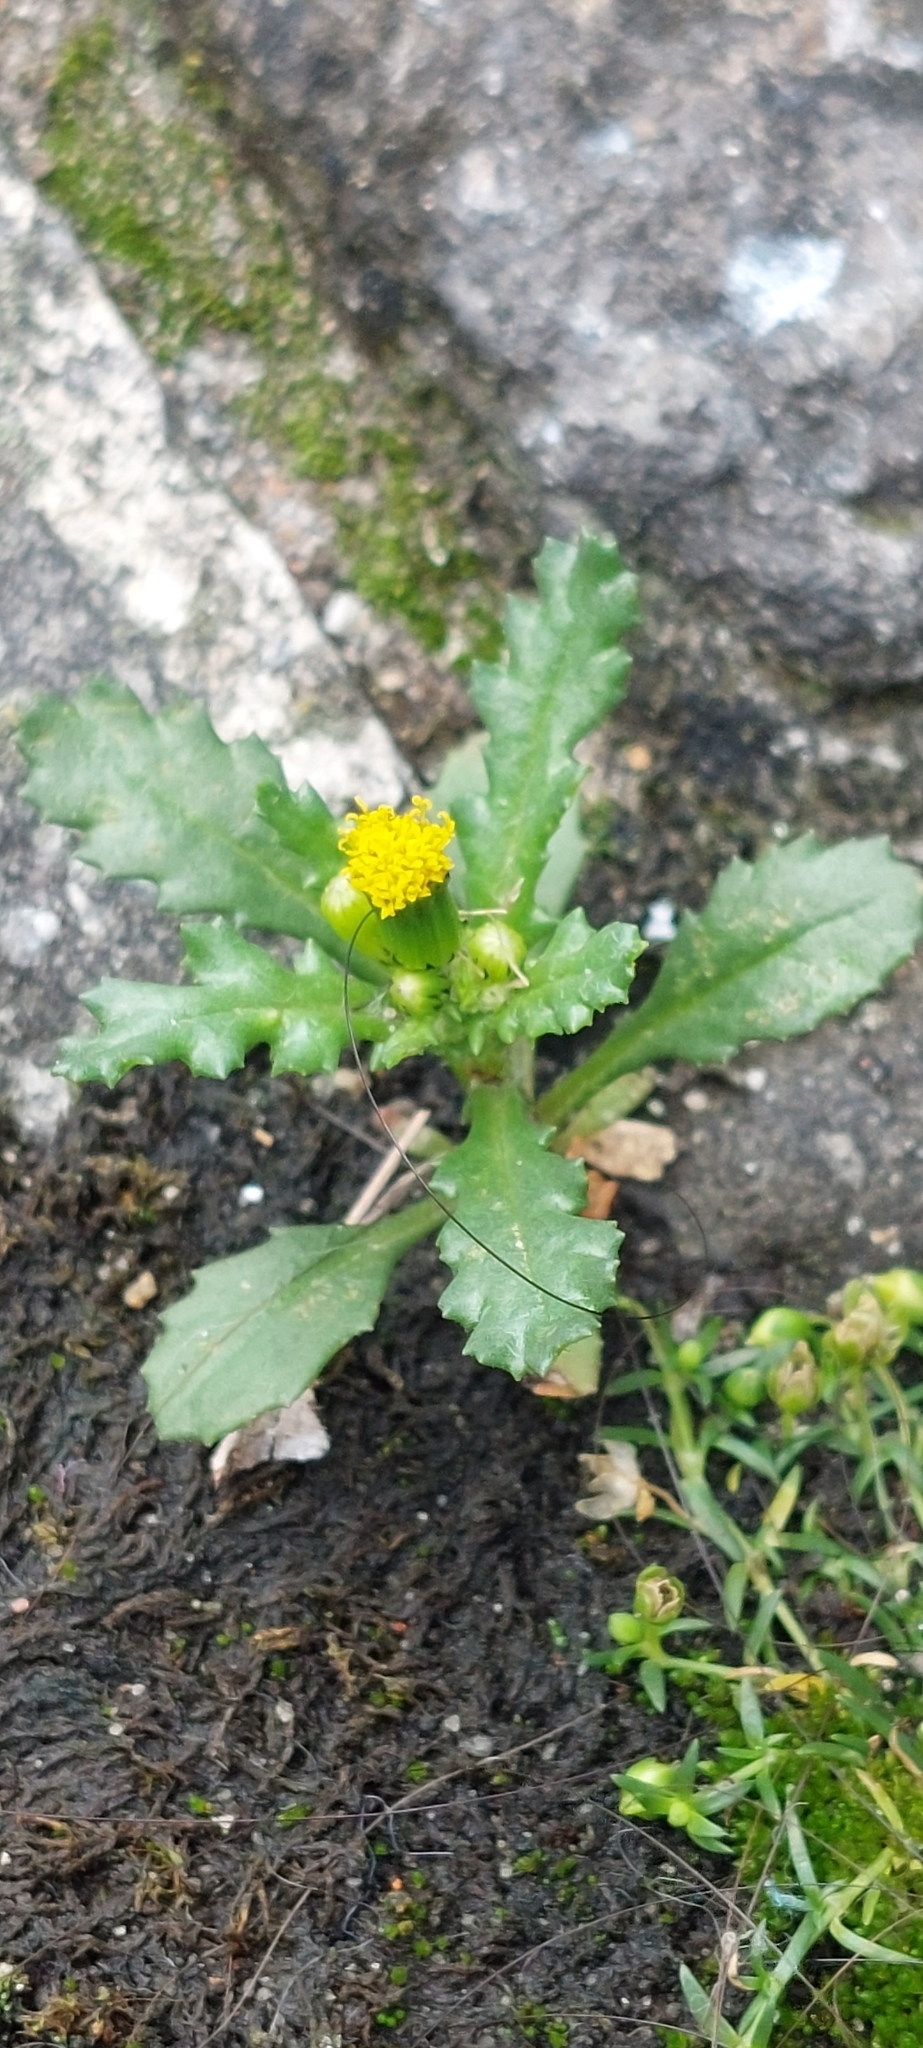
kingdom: Plantae
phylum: Tracheophyta
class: Magnoliopsida
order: Asterales
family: Asteraceae
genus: Senecio
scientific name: Senecio vulgaris
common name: Old-man-in-the-spring
